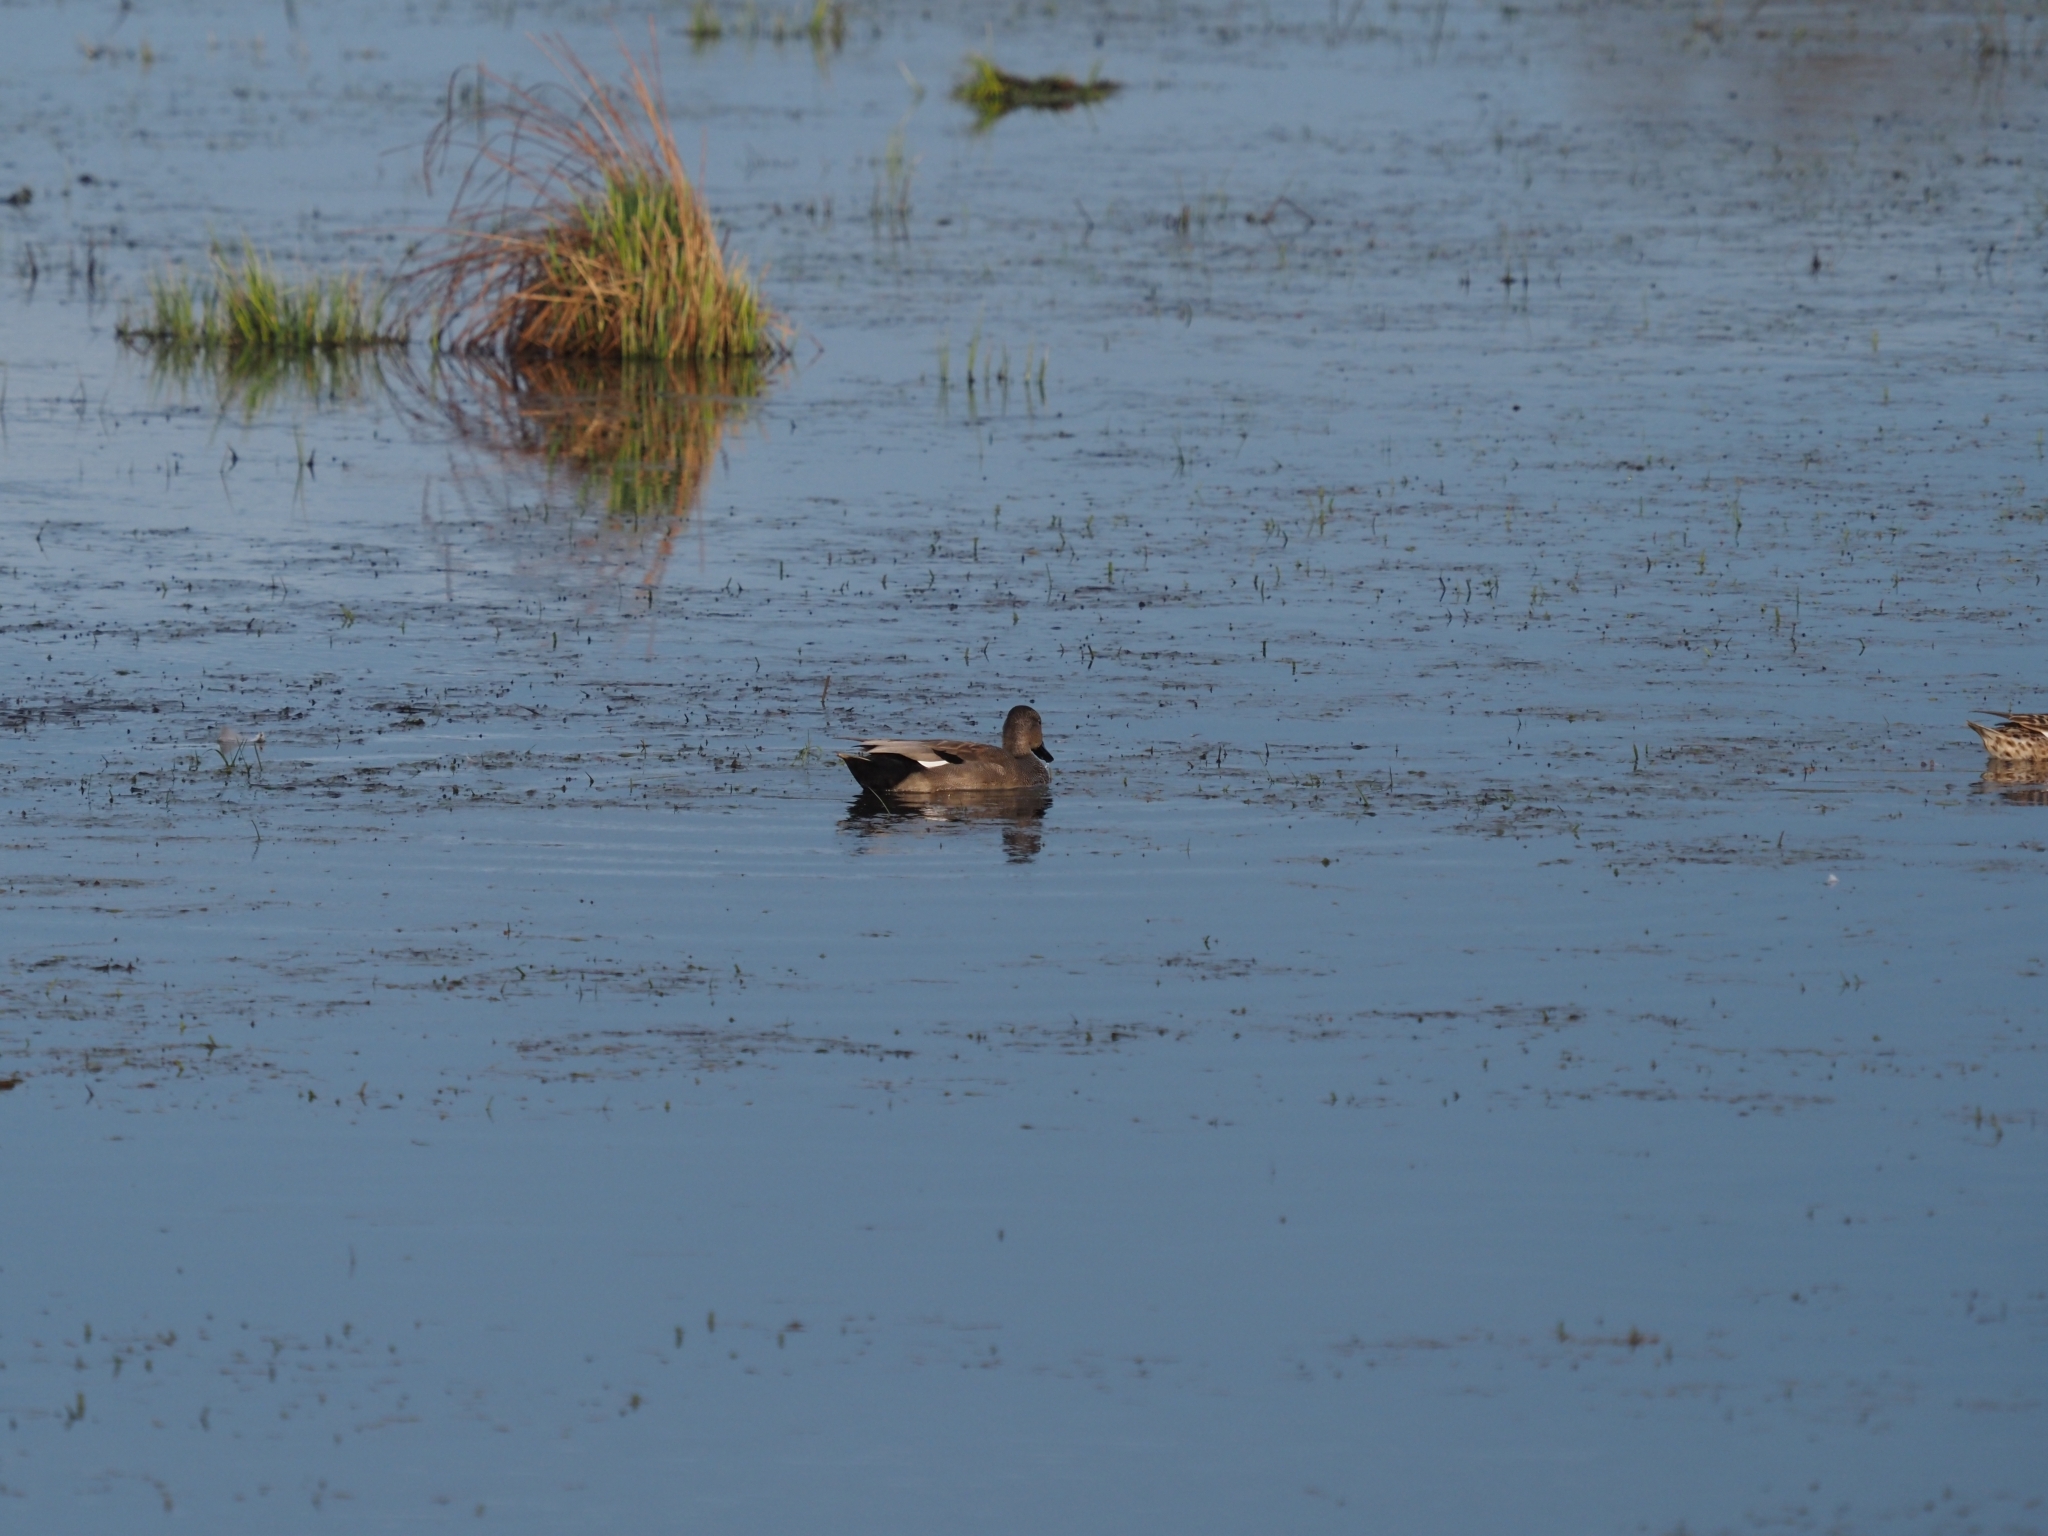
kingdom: Animalia
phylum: Chordata
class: Aves
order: Anseriformes
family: Anatidae
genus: Mareca
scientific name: Mareca strepera
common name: Gadwall
